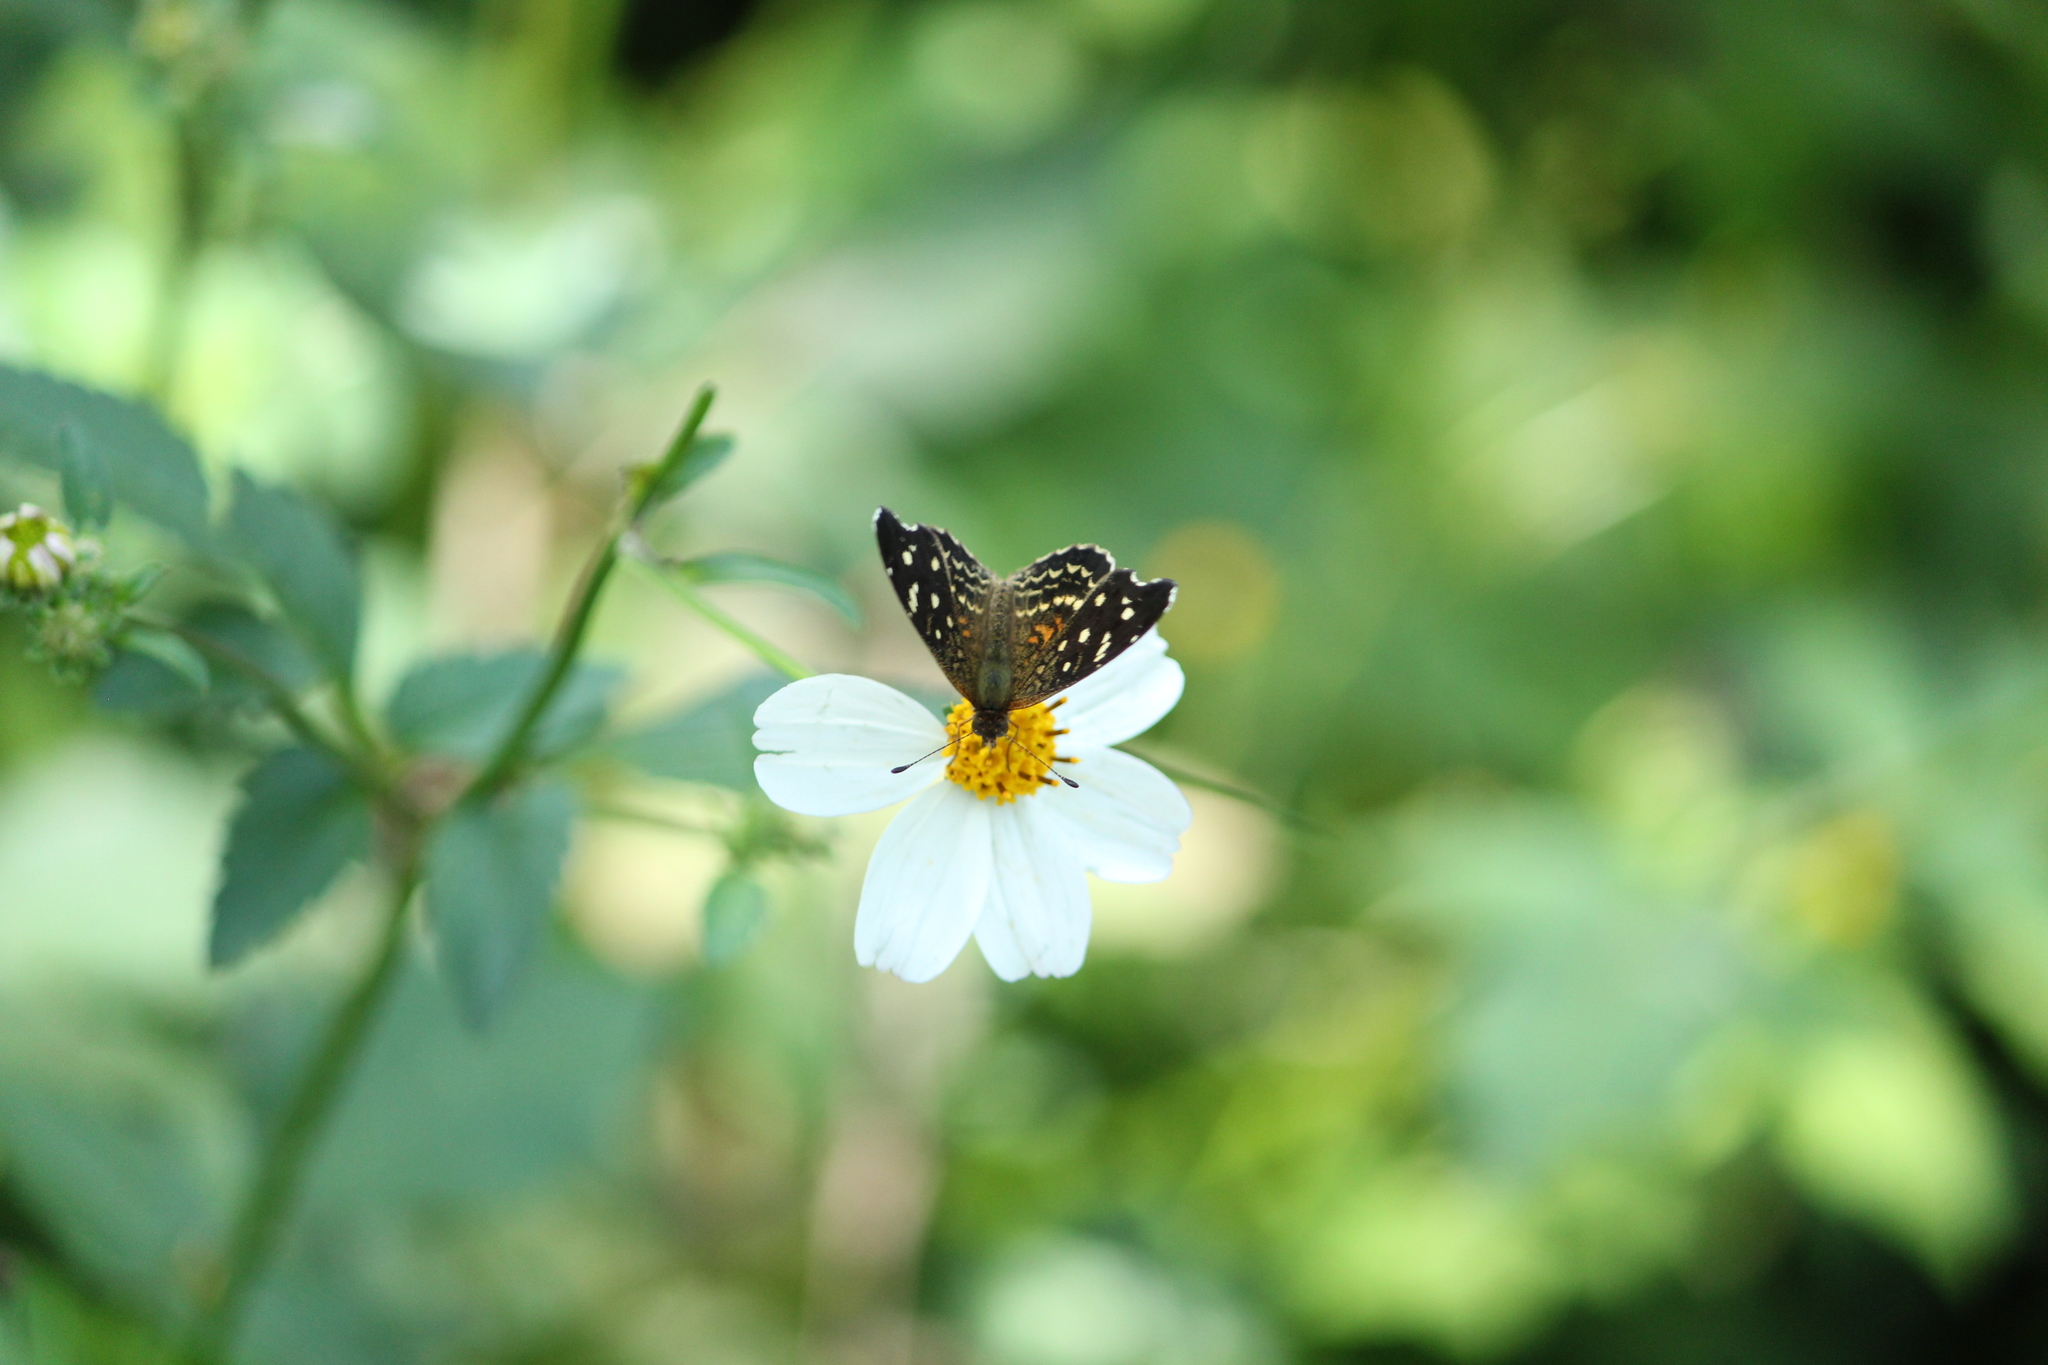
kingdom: Animalia
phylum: Arthropoda
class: Insecta
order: Lepidoptera
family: Nymphalidae
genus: Anthanassa
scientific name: Anthanassa tulcis
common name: Pale-banded crescent
